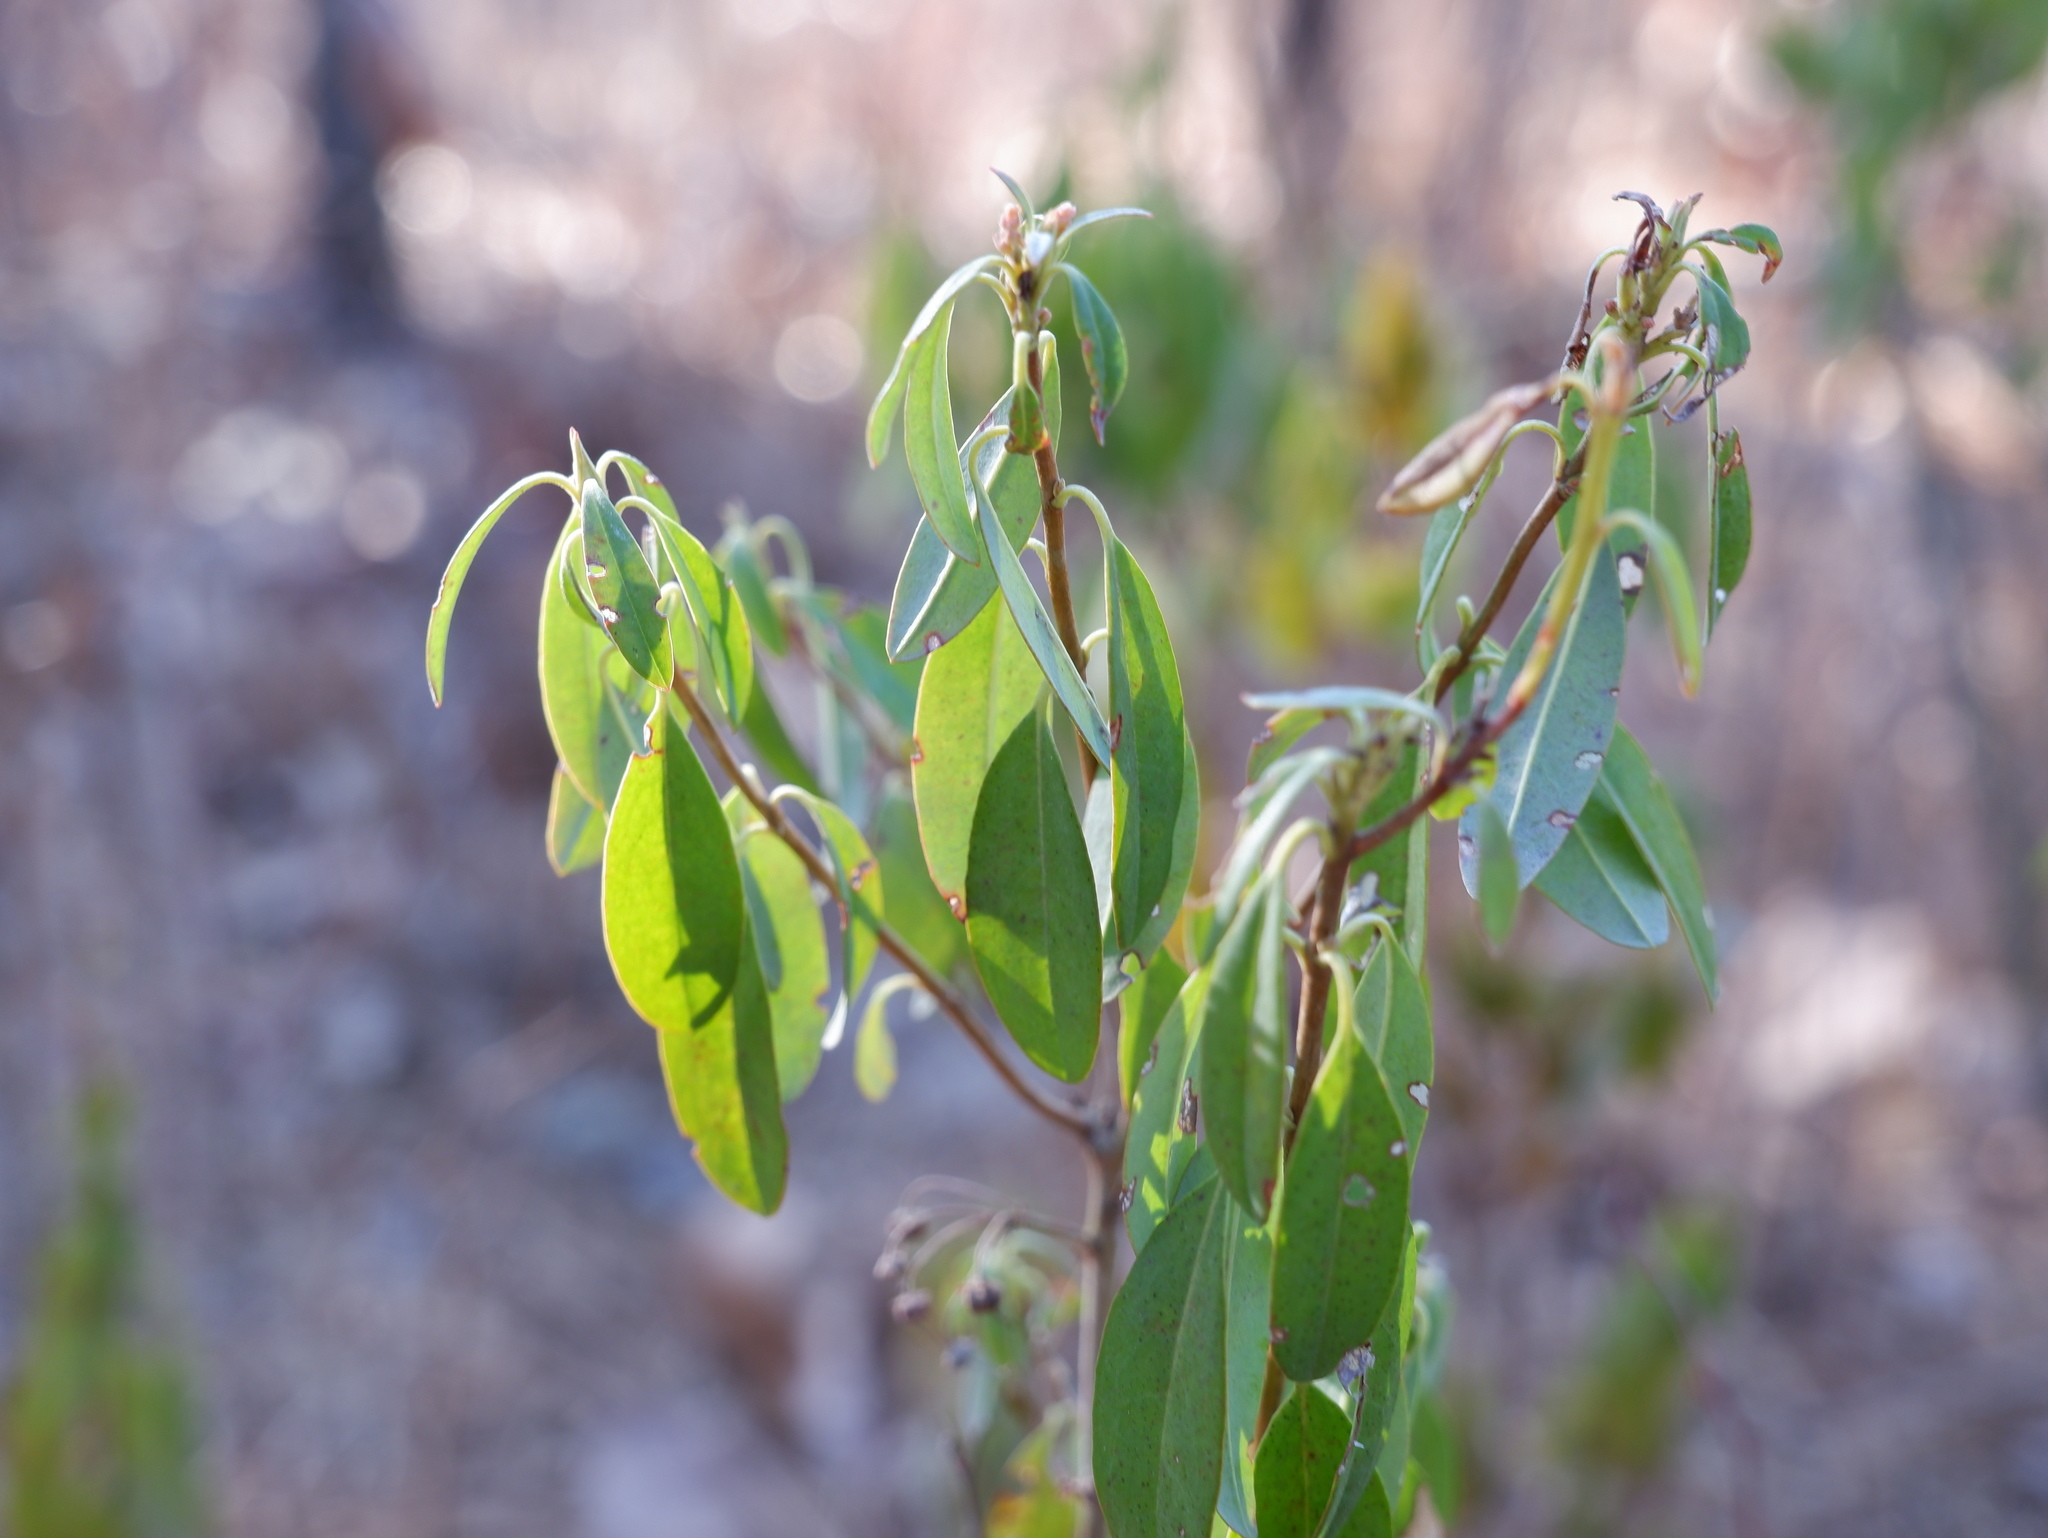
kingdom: Plantae
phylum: Tracheophyta
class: Magnoliopsida
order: Ericales
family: Ericaceae
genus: Kalmia
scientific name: Kalmia angustifolia
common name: Sheep-laurel
